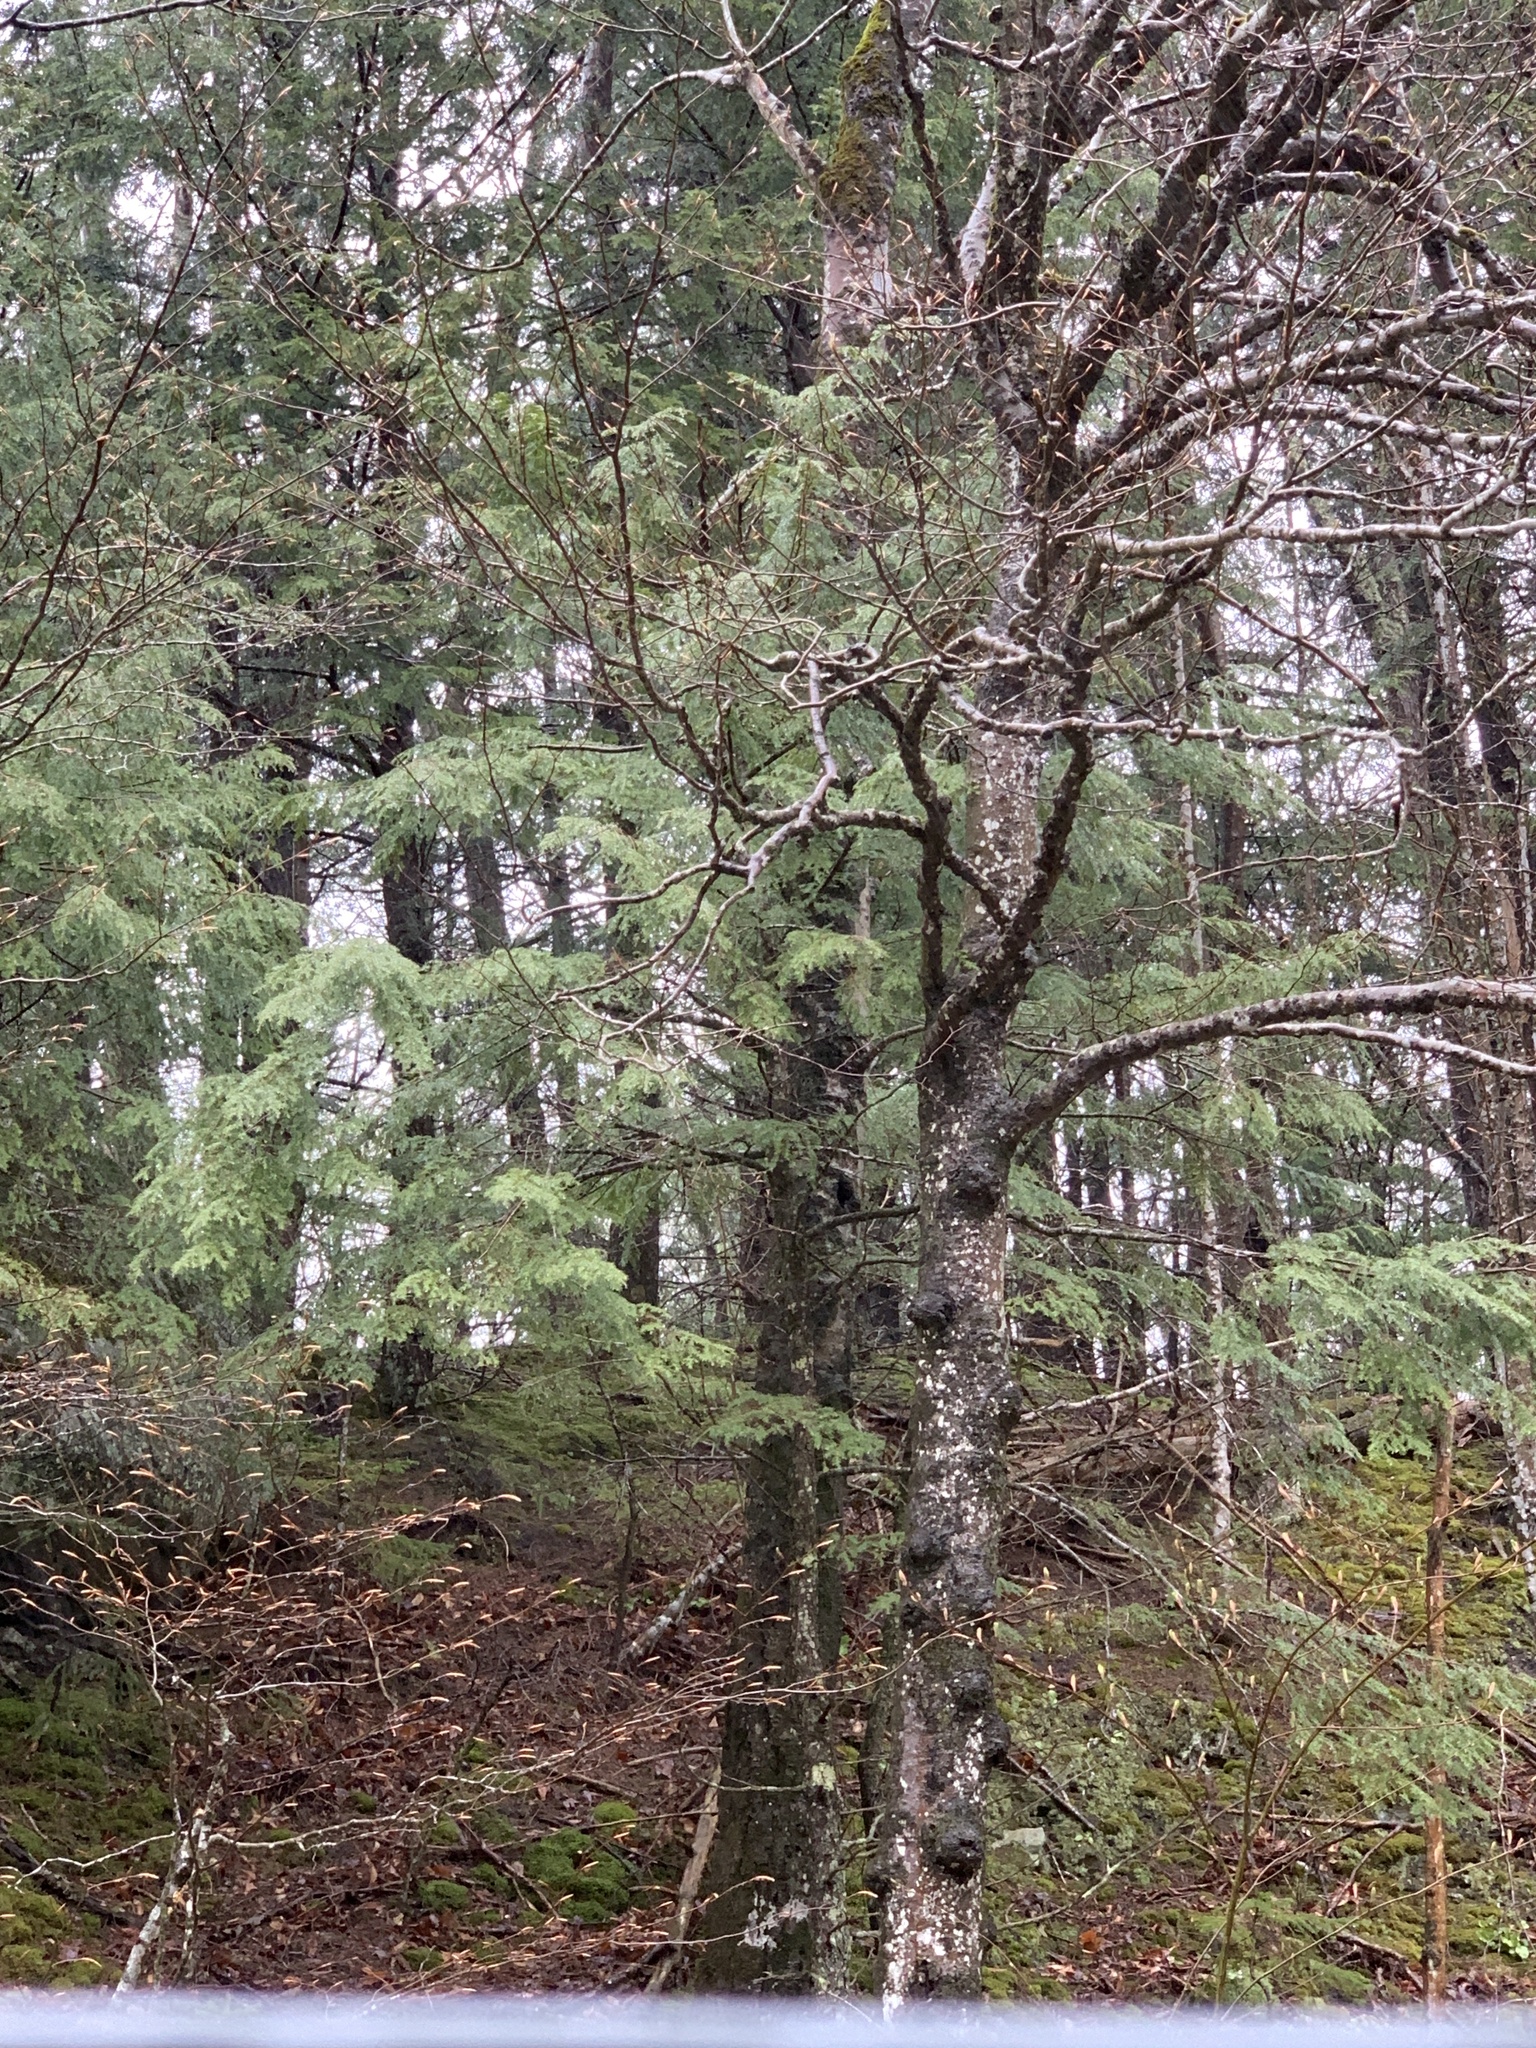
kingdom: Plantae
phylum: Tracheophyta
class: Pinopsida
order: Pinales
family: Pinaceae
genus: Tsuga
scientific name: Tsuga canadensis
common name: Eastern hemlock
